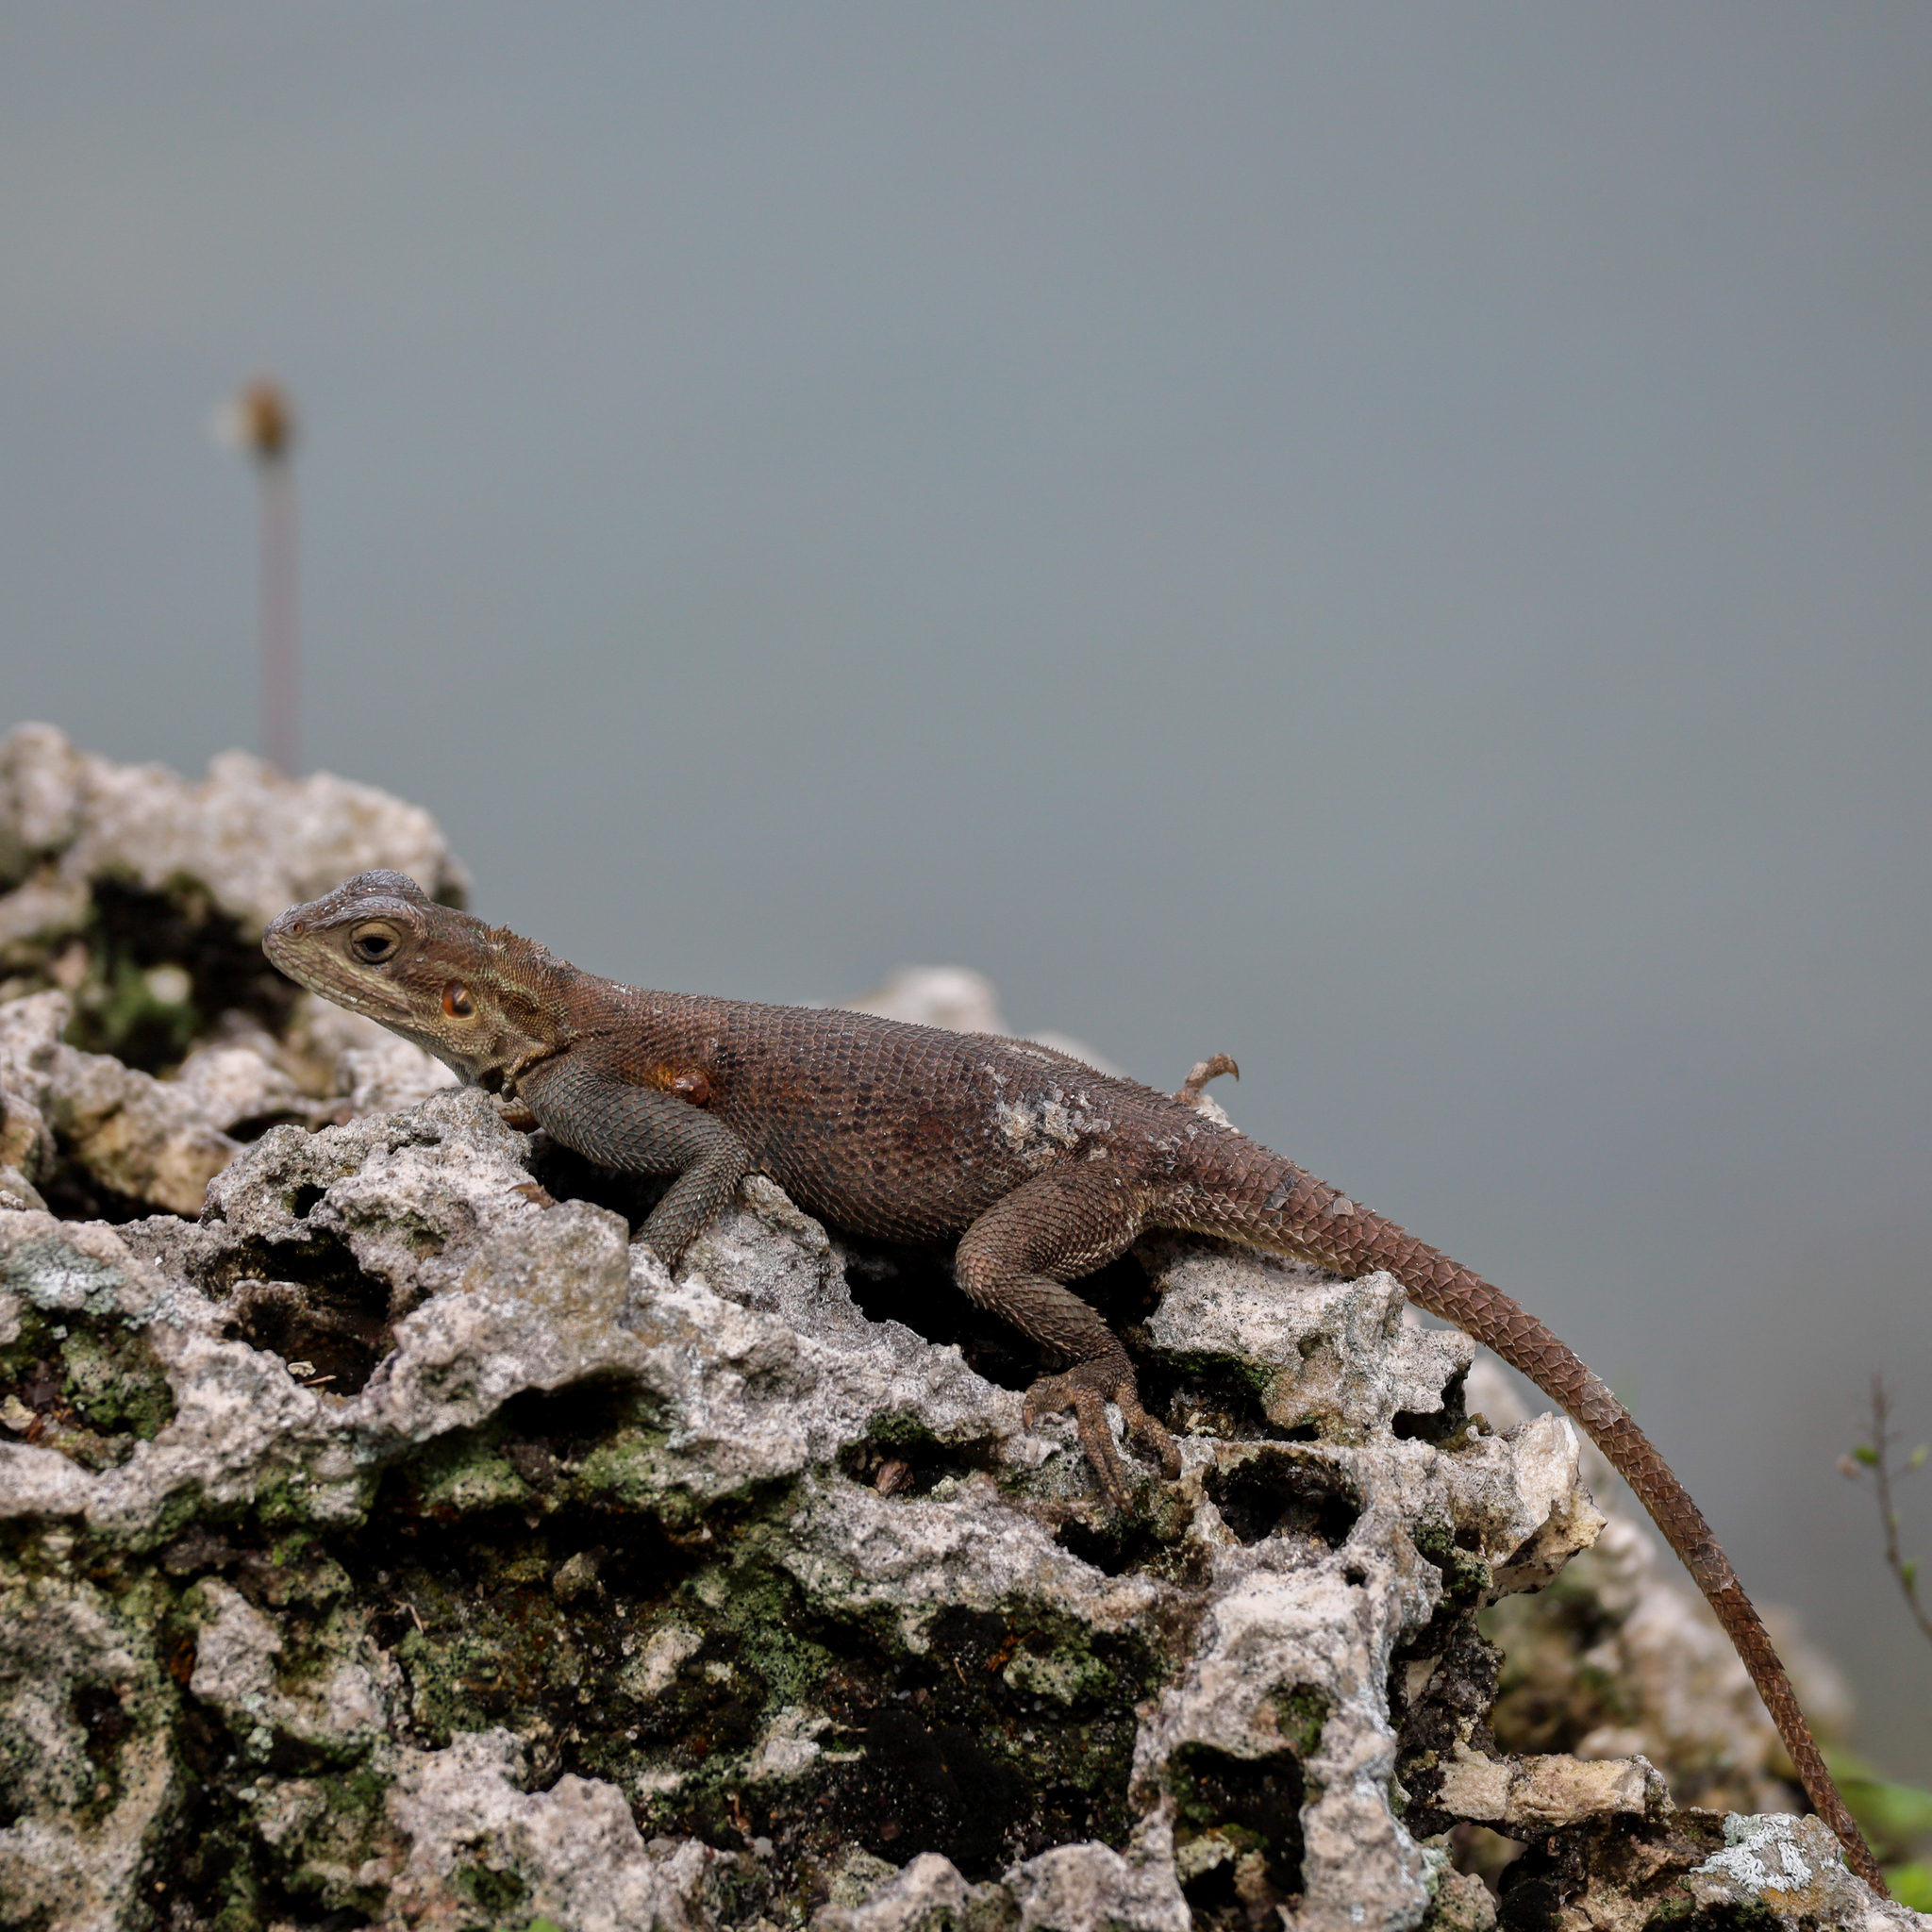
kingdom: Animalia
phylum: Chordata
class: Squamata
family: Agamidae
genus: Agama
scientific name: Agama picticauda
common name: Red-headed agama
